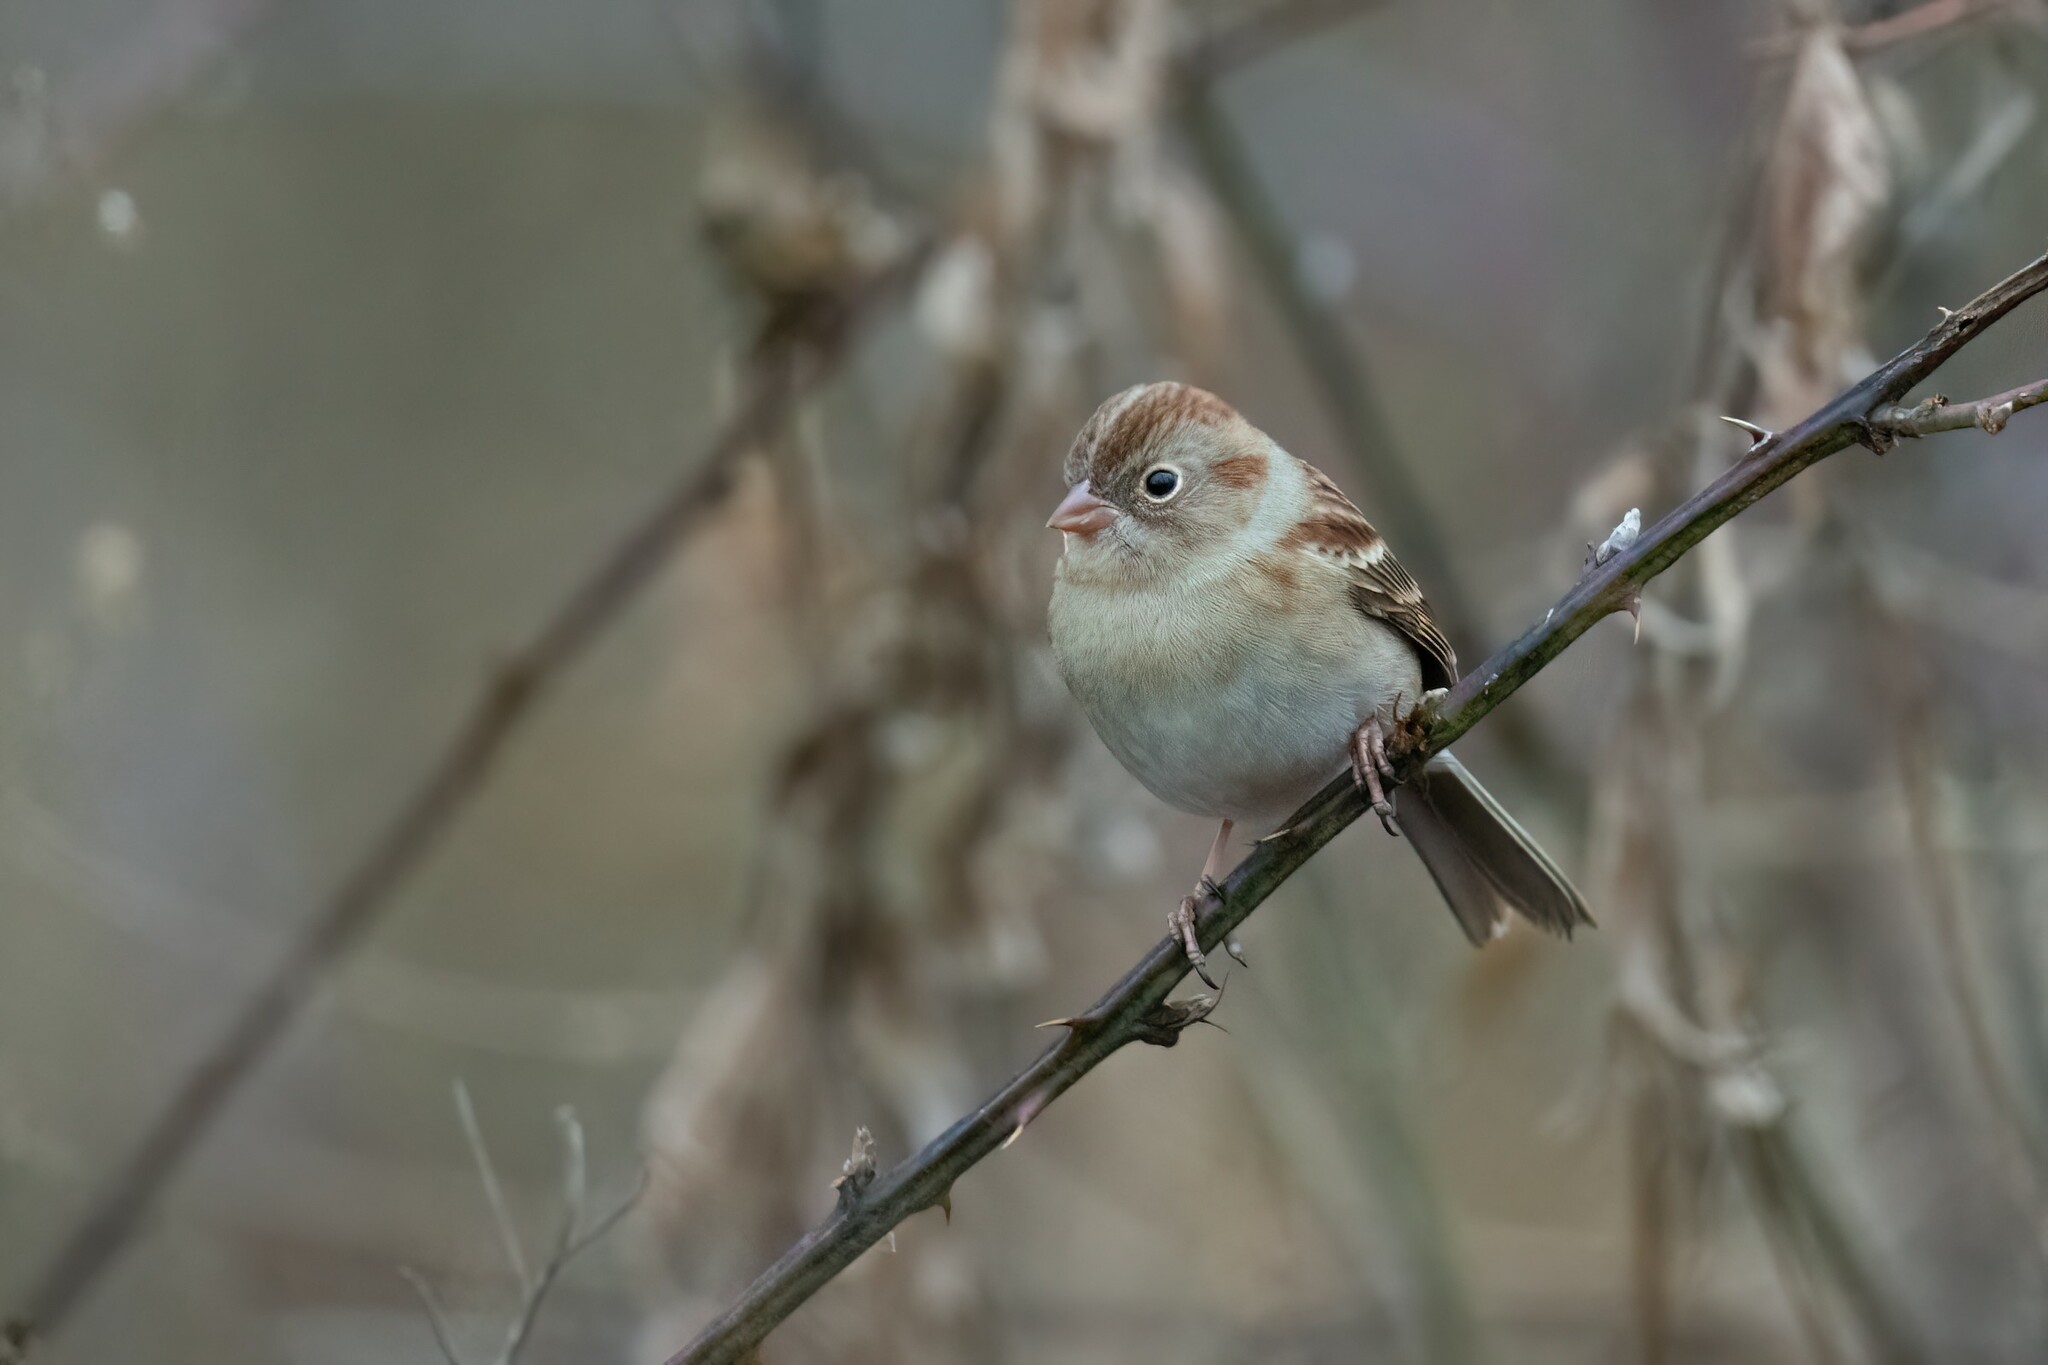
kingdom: Animalia
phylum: Chordata
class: Aves
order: Passeriformes
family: Passerellidae
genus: Spizella
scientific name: Spizella pusilla
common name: Field sparrow
